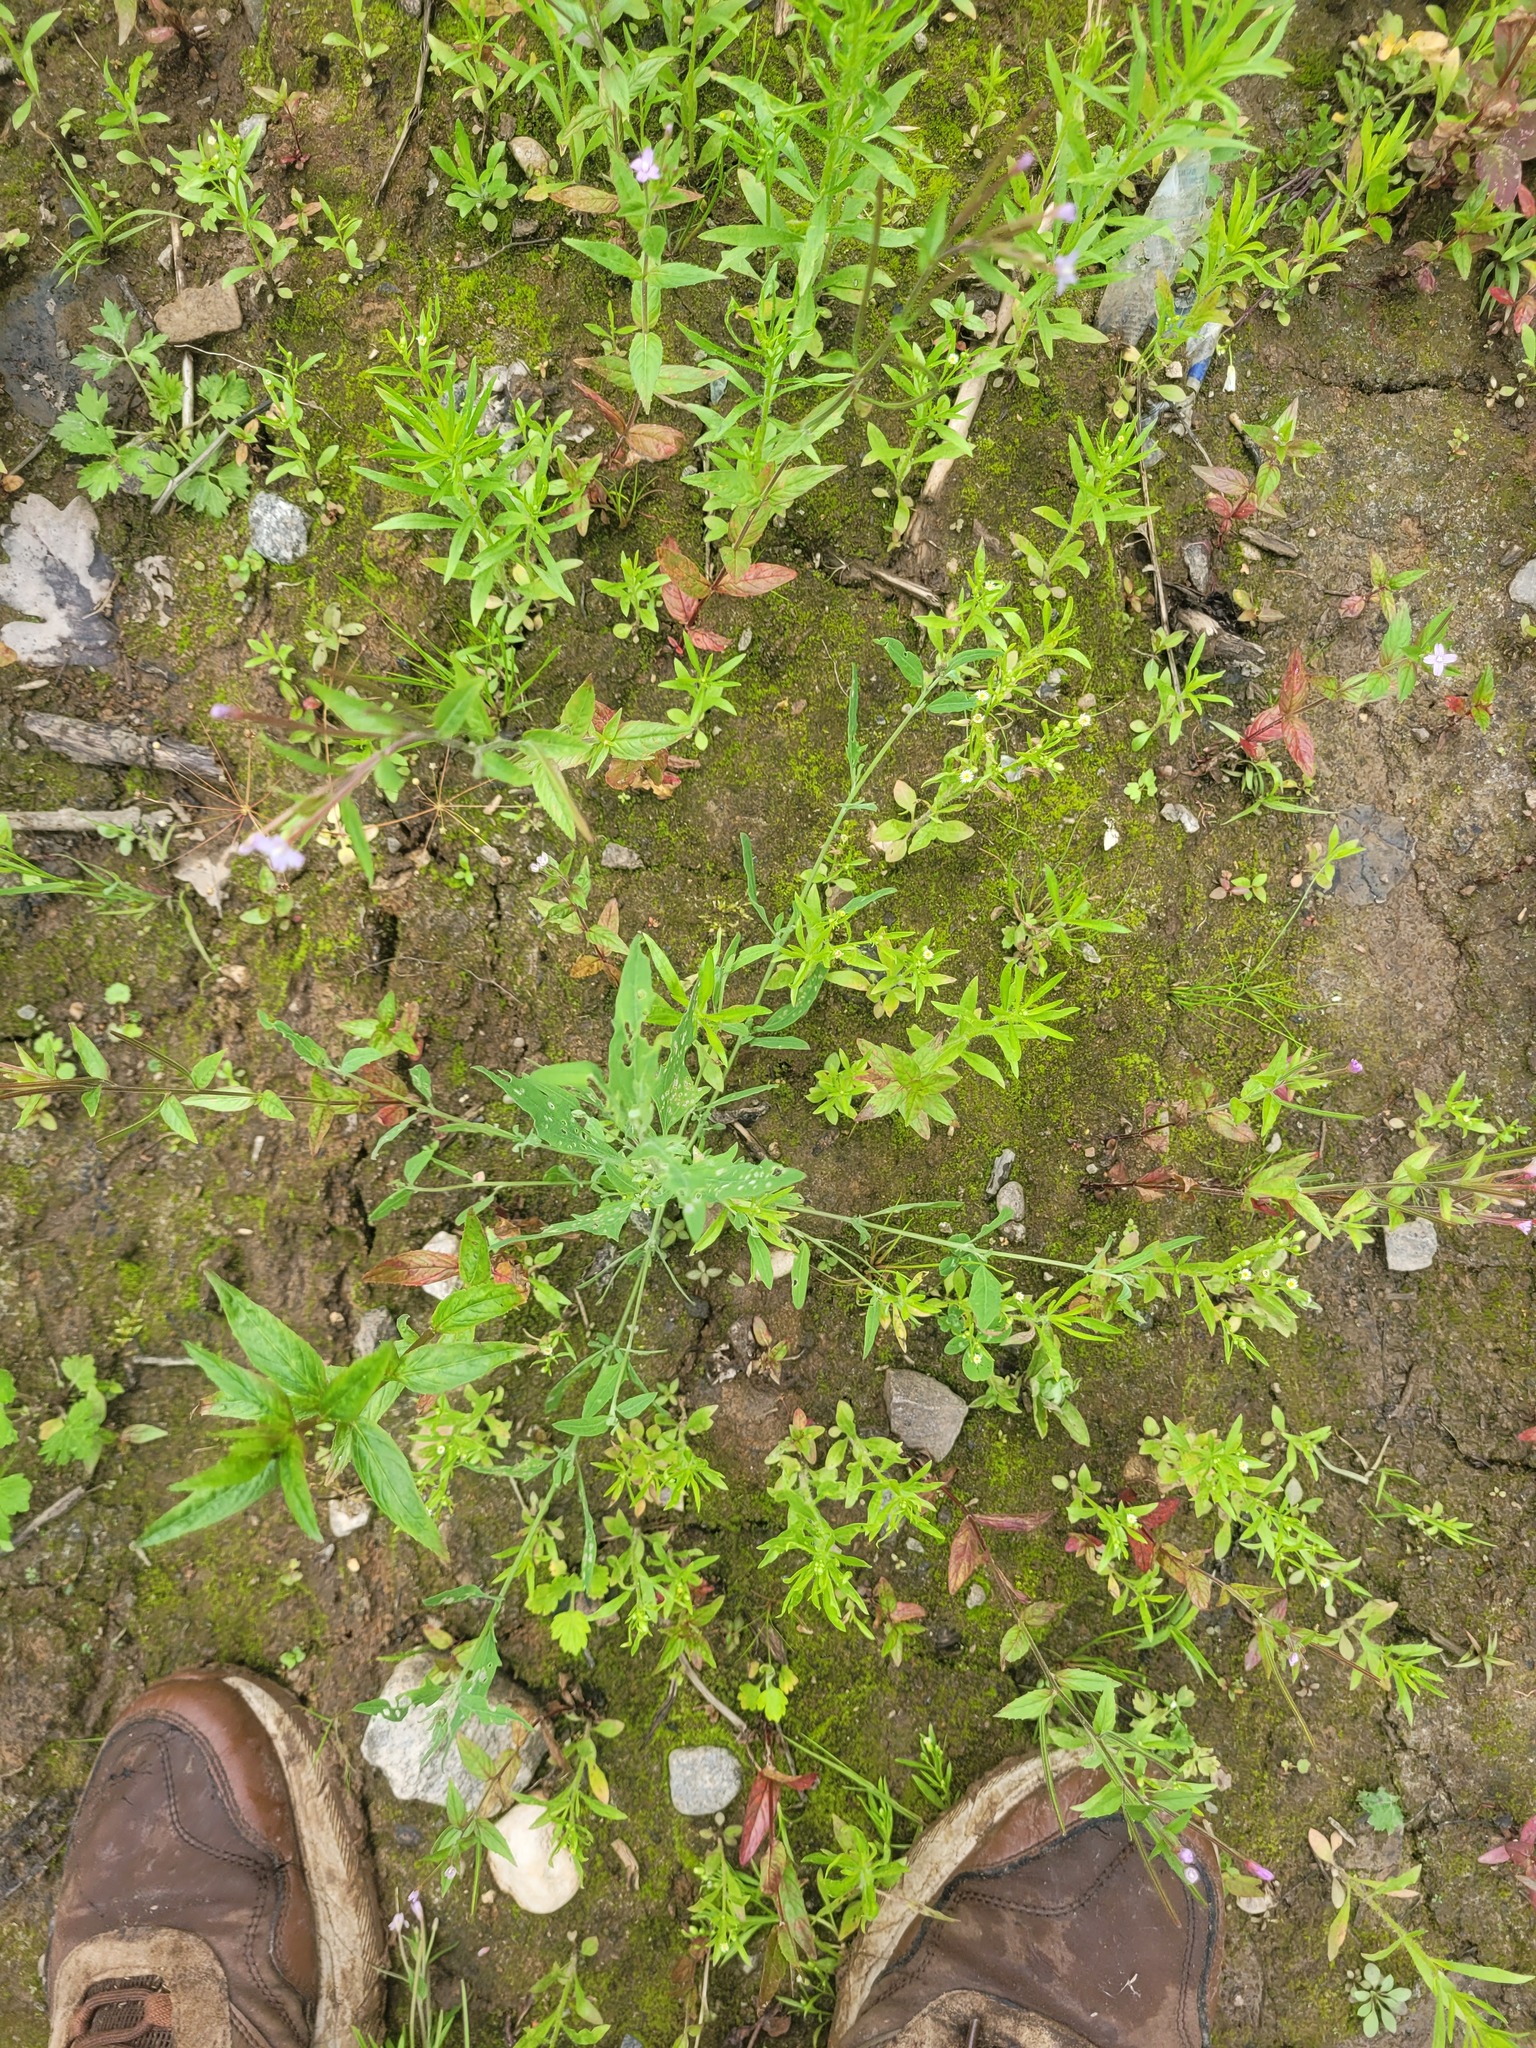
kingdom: Plantae
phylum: Tracheophyta
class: Magnoliopsida
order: Caryophyllales
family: Amaranthaceae
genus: Atriplex
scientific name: Atriplex patula
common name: Common orache
